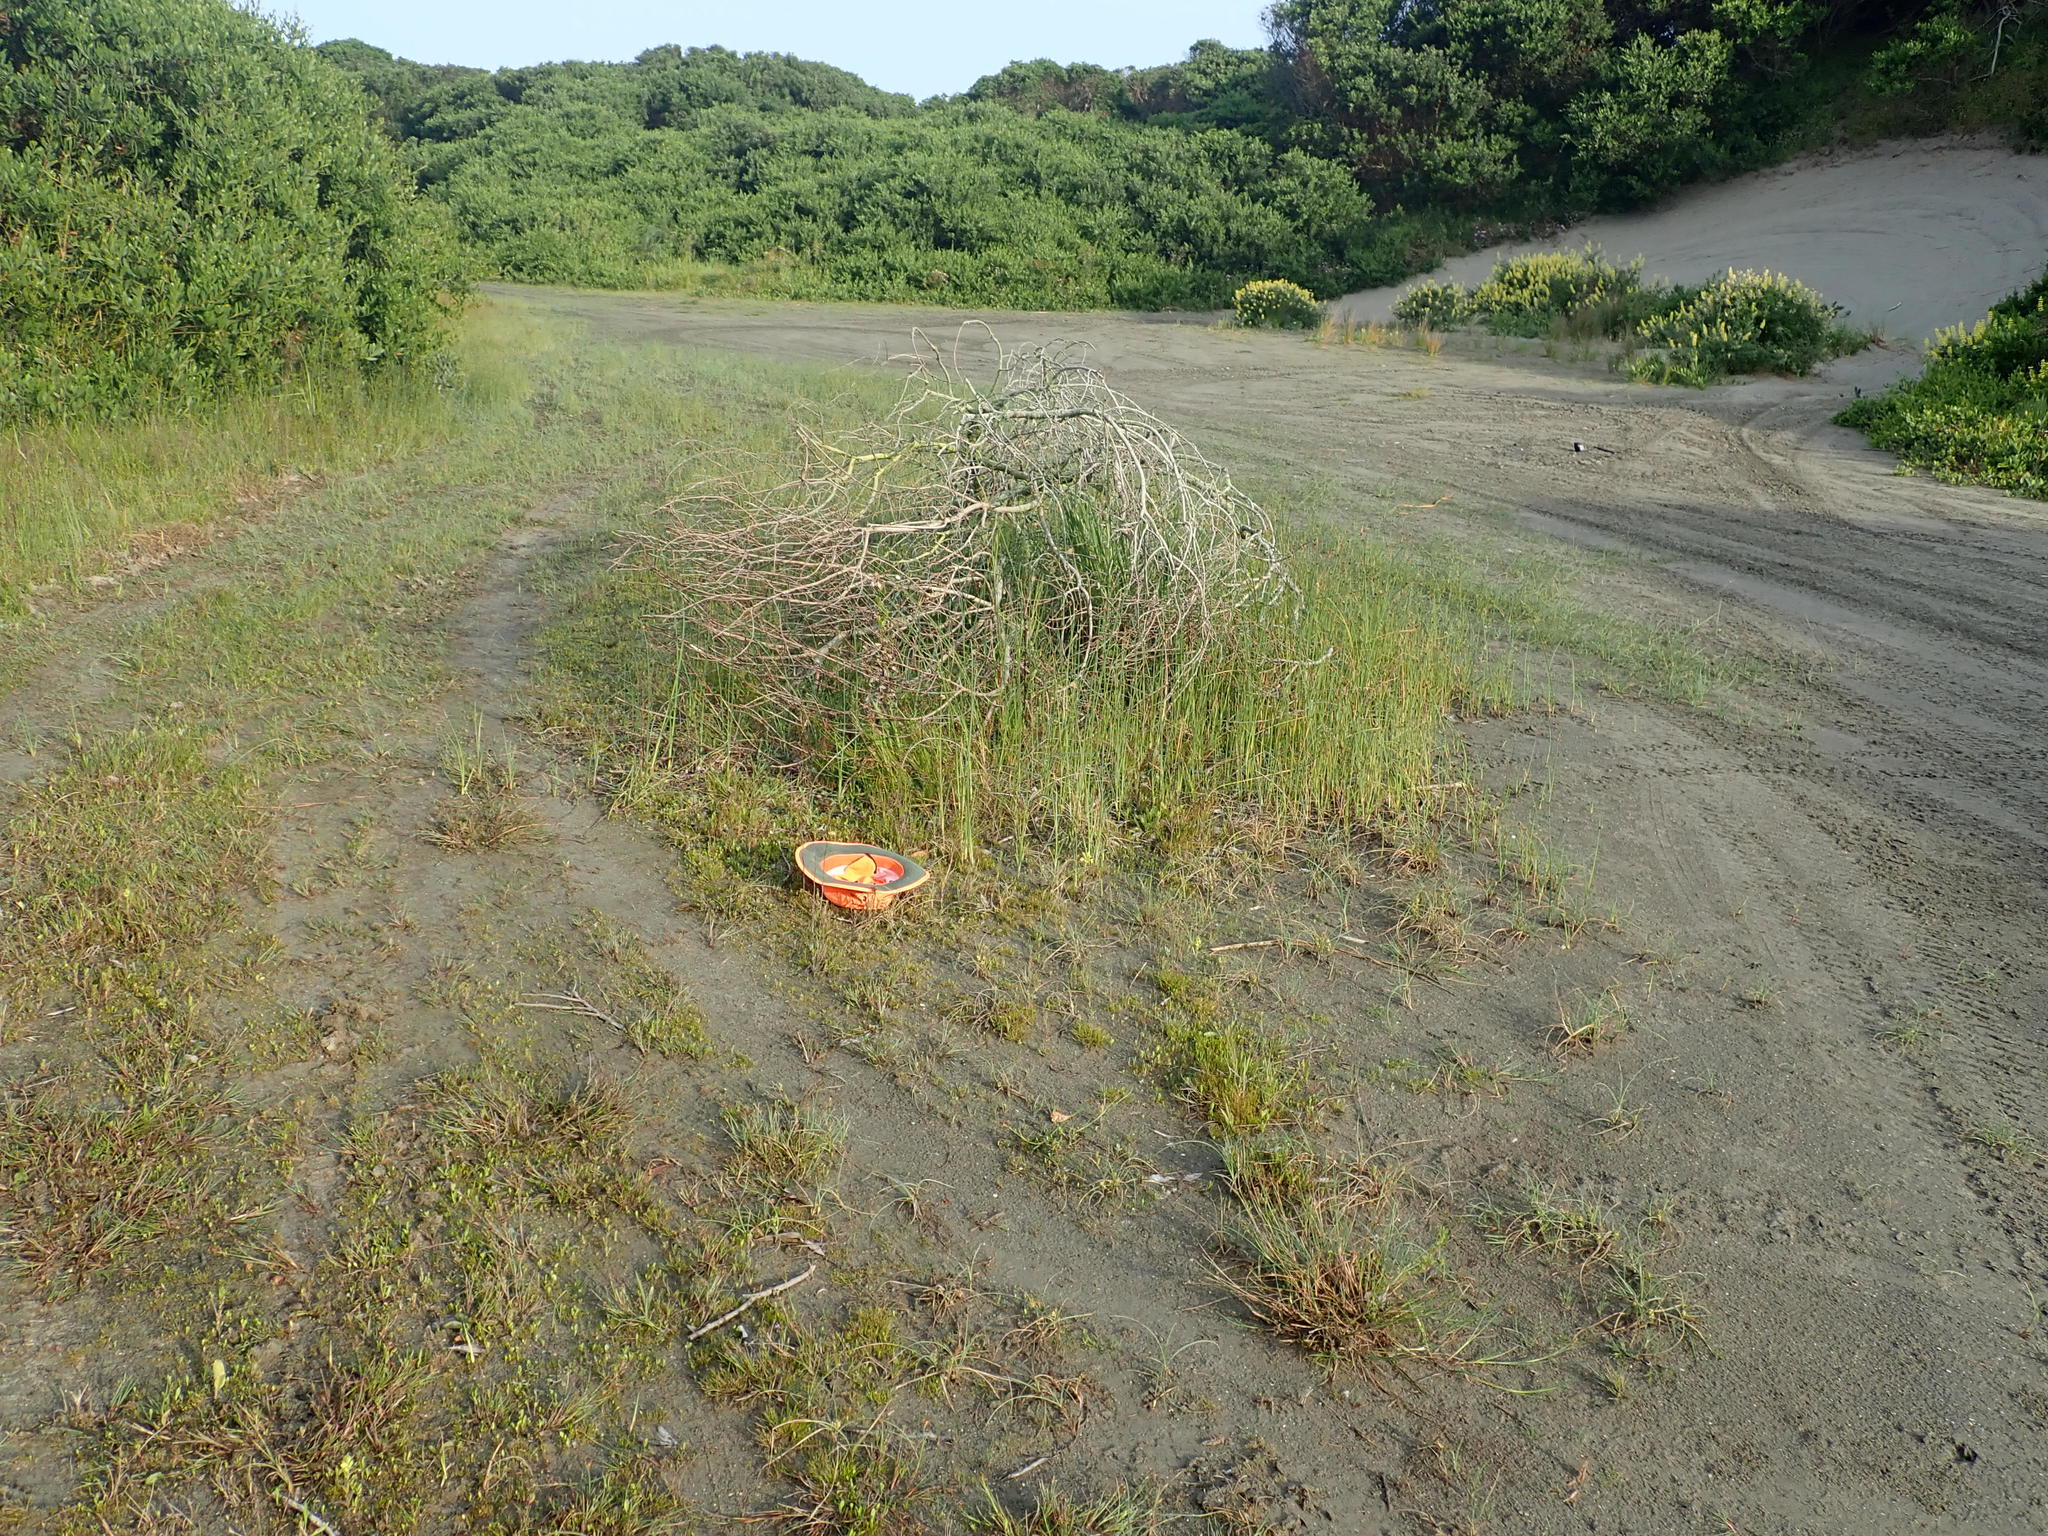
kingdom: Plantae
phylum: Tracheophyta
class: Liliopsida
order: Poales
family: Cyperaceae
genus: Isolepis
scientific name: Isolepis basilaris
